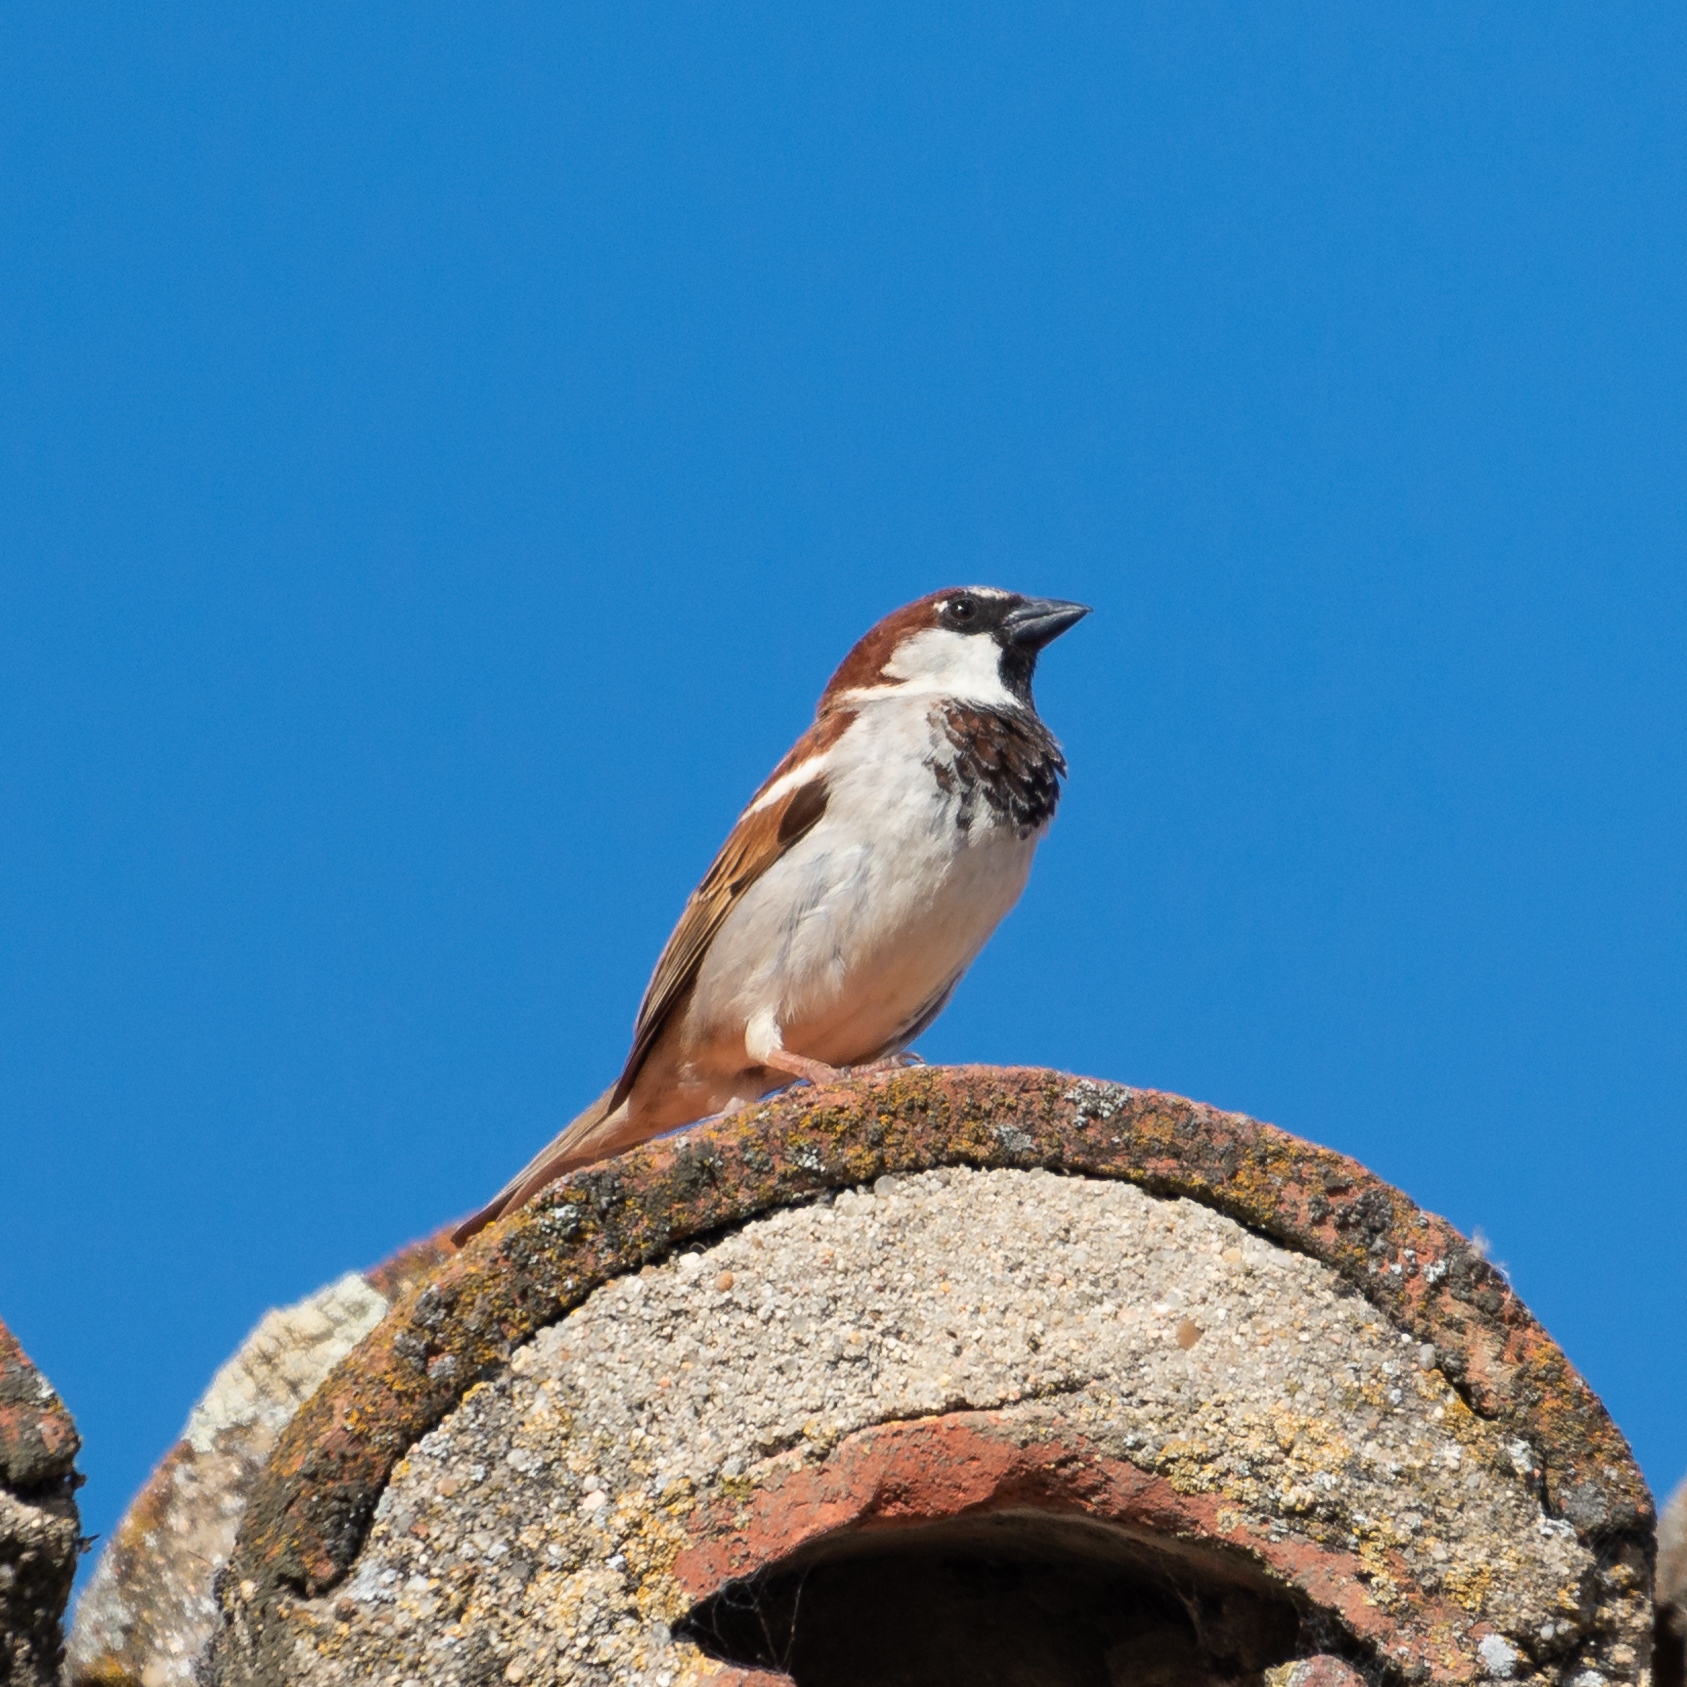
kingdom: Animalia
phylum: Chordata
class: Aves
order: Passeriformes
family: Passeridae
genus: Passer
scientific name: Passer domesticus
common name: House sparrow
